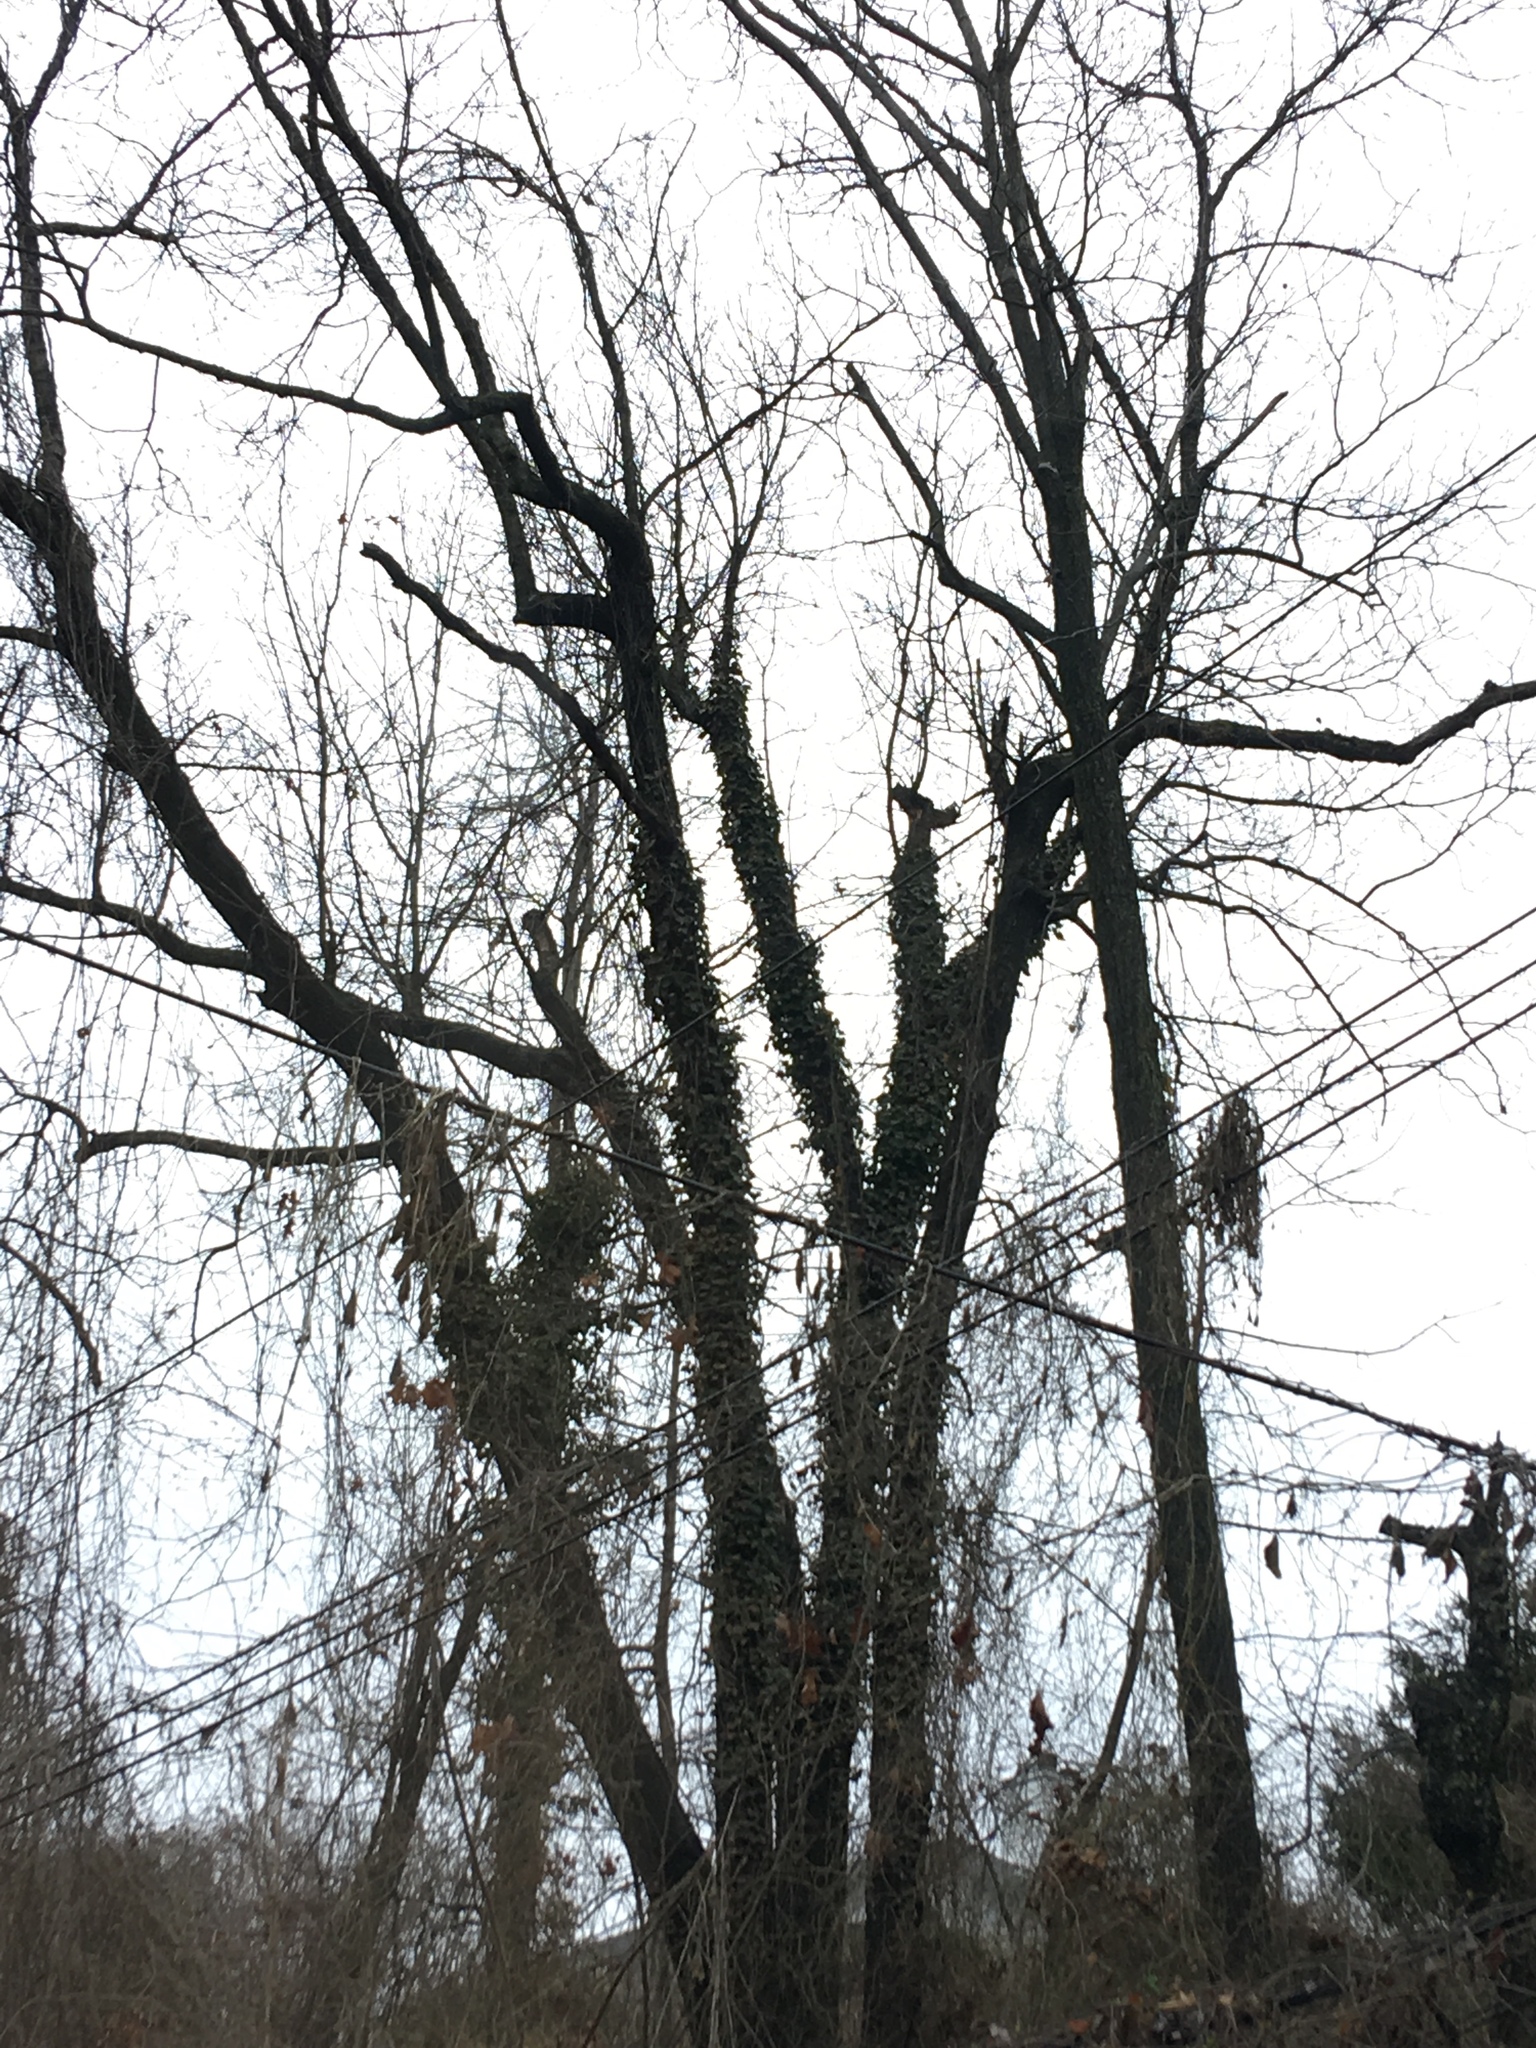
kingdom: Plantae
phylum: Tracheophyta
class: Magnoliopsida
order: Apiales
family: Araliaceae
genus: Hedera
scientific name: Hedera helix
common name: Ivy
